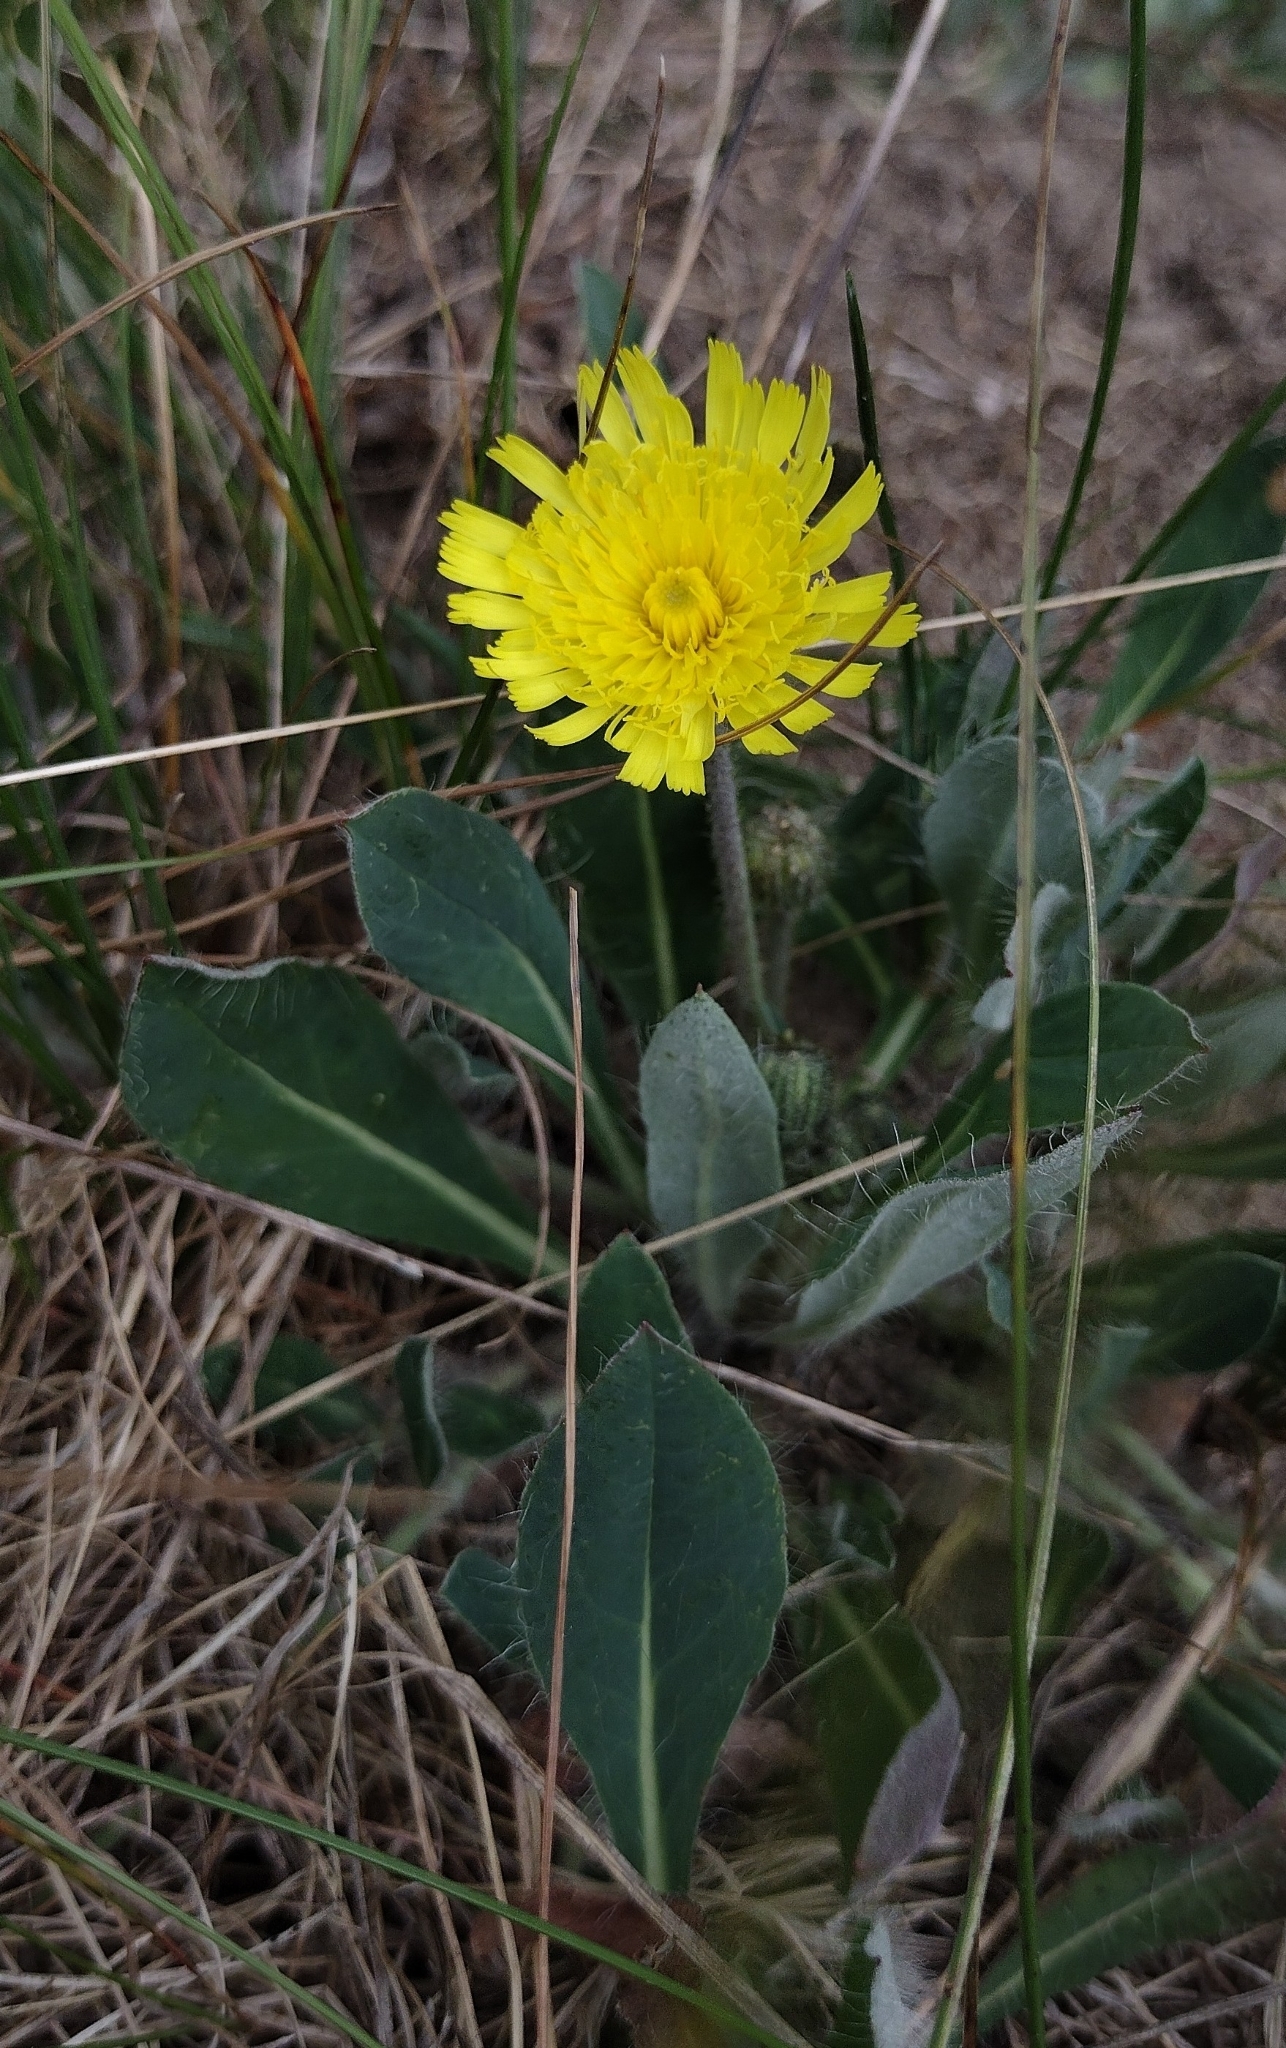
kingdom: Plantae
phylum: Tracheophyta
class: Magnoliopsida
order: Asterales
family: Asteraceae
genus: Pilosella
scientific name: Pilosella officinarum
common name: Mouse-ear hawkweed
